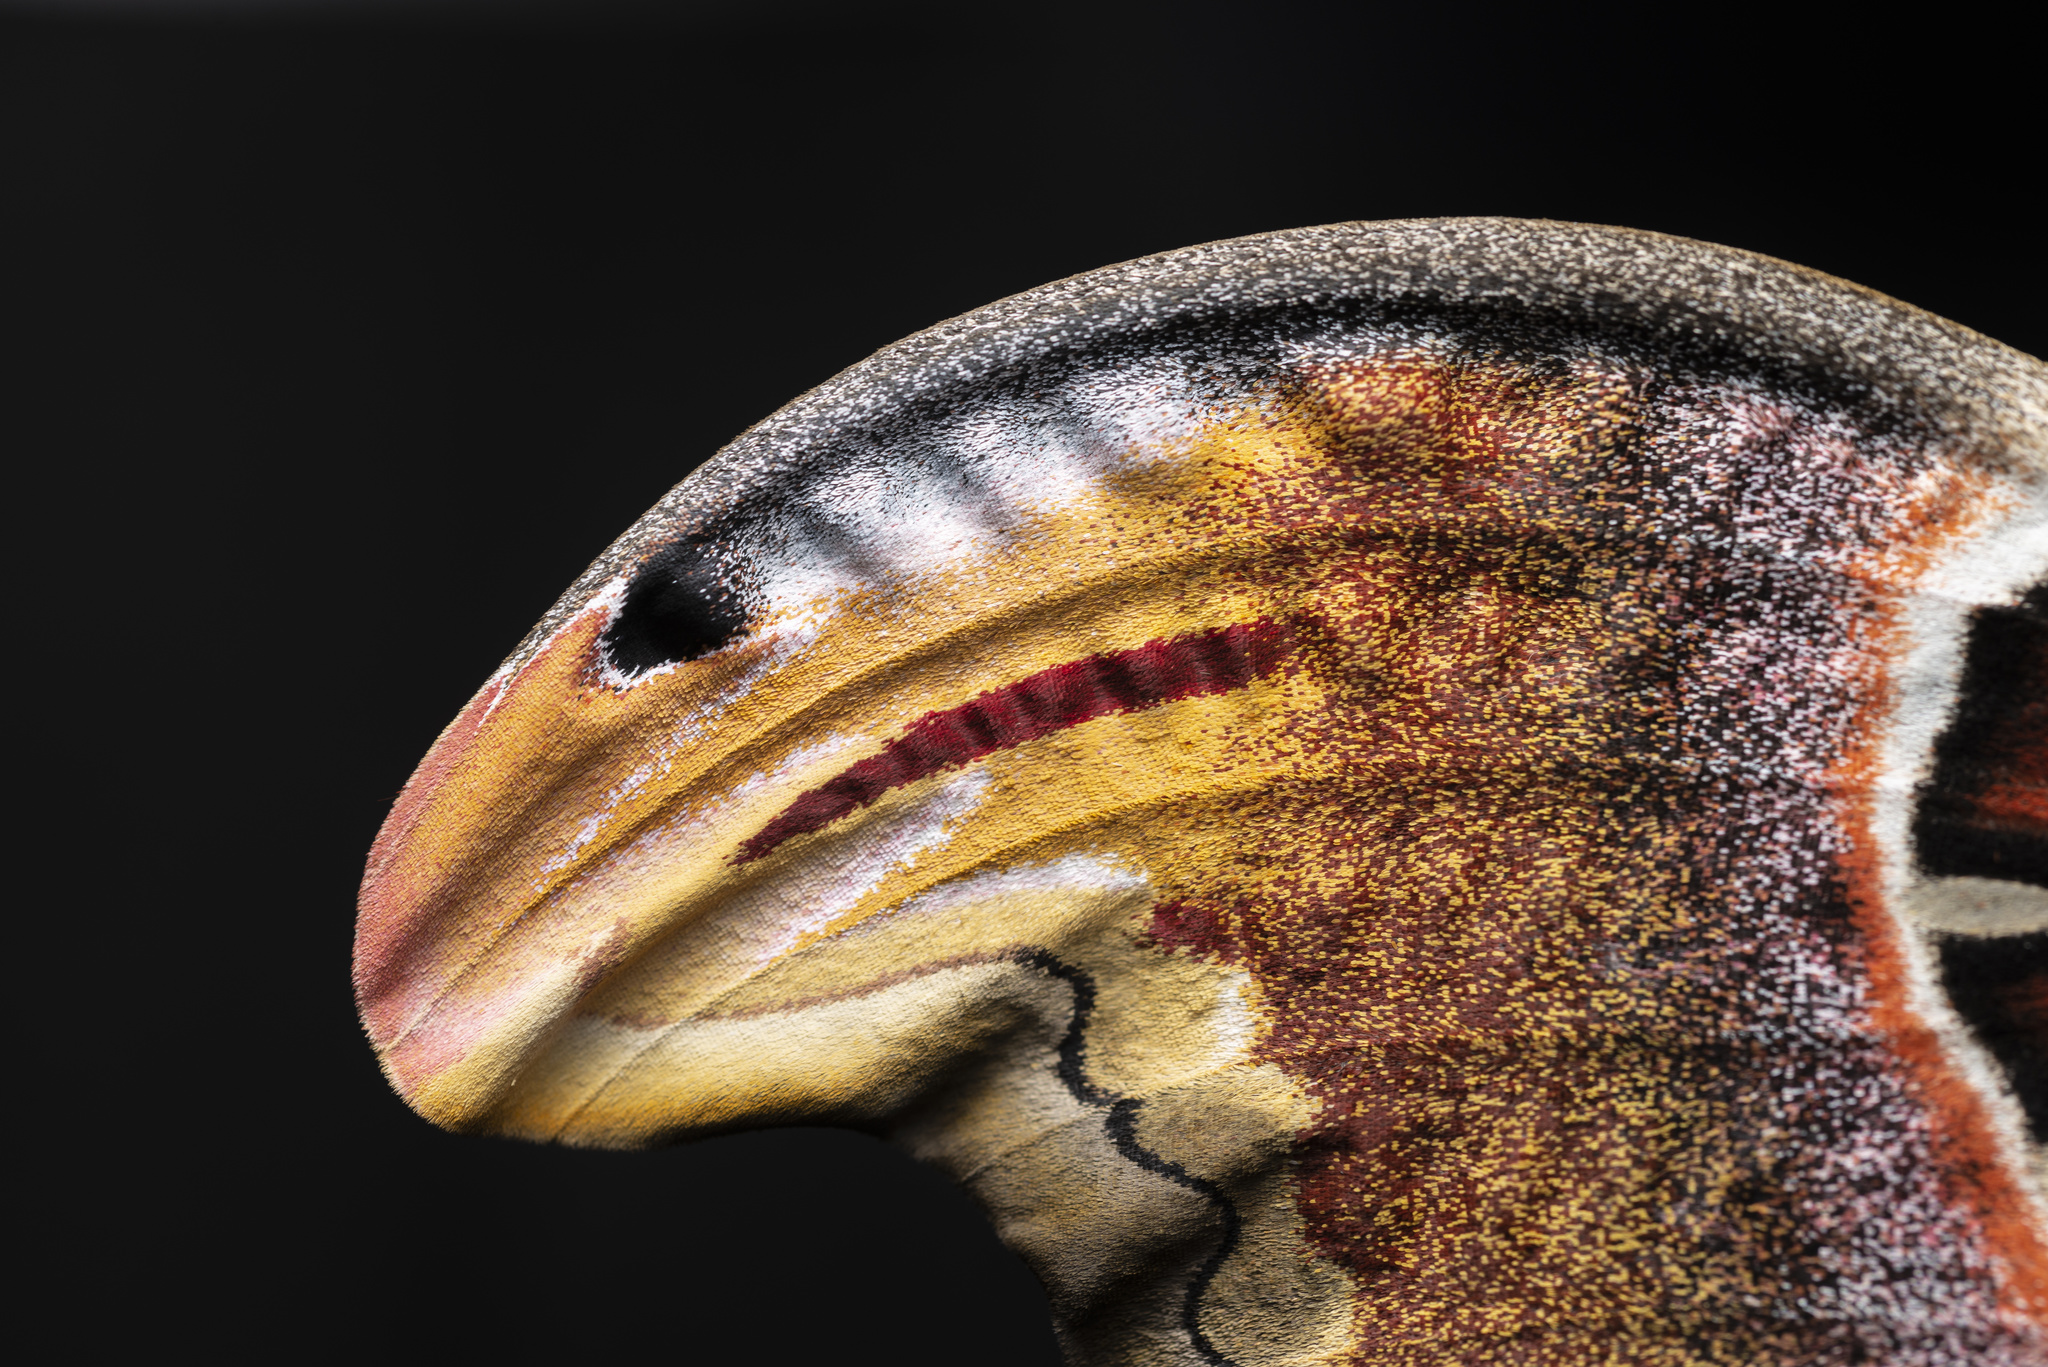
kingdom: Animalia
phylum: Arthropoda
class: Insecta
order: Lepidoptera
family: Saturniidae
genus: Attacus
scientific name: Attacus atlas
